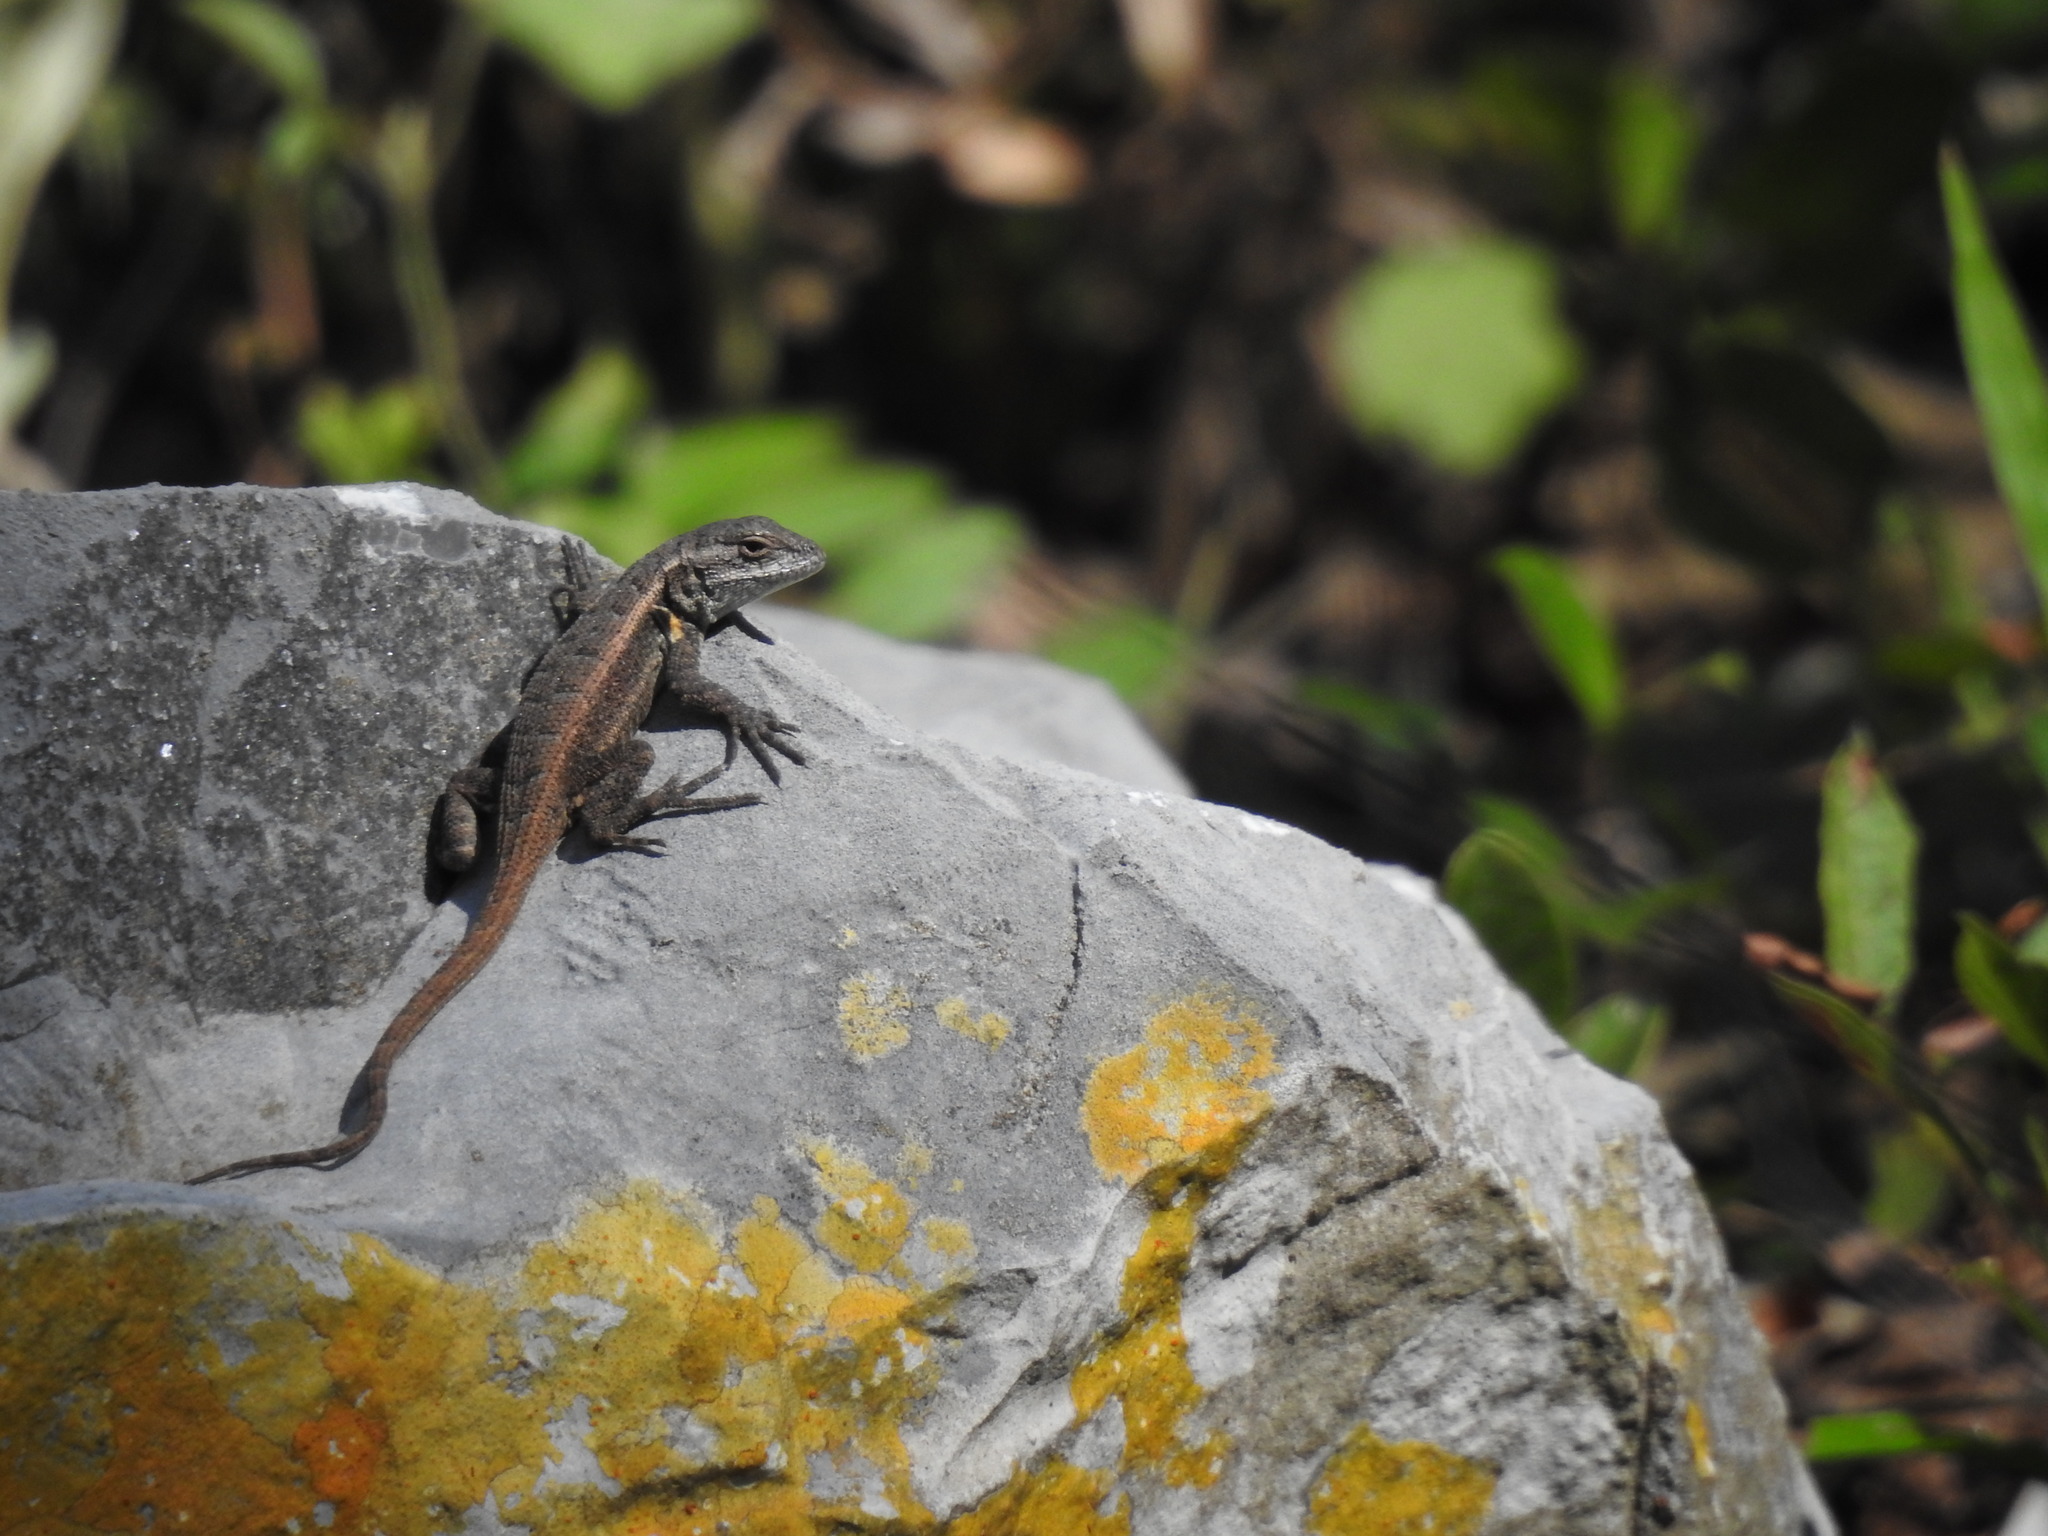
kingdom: Animalia
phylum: Chordata
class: Squamata
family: Phrynosomatidae
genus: Sceloporus
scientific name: Sceloporus variabilis
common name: Rosebelly lizard
